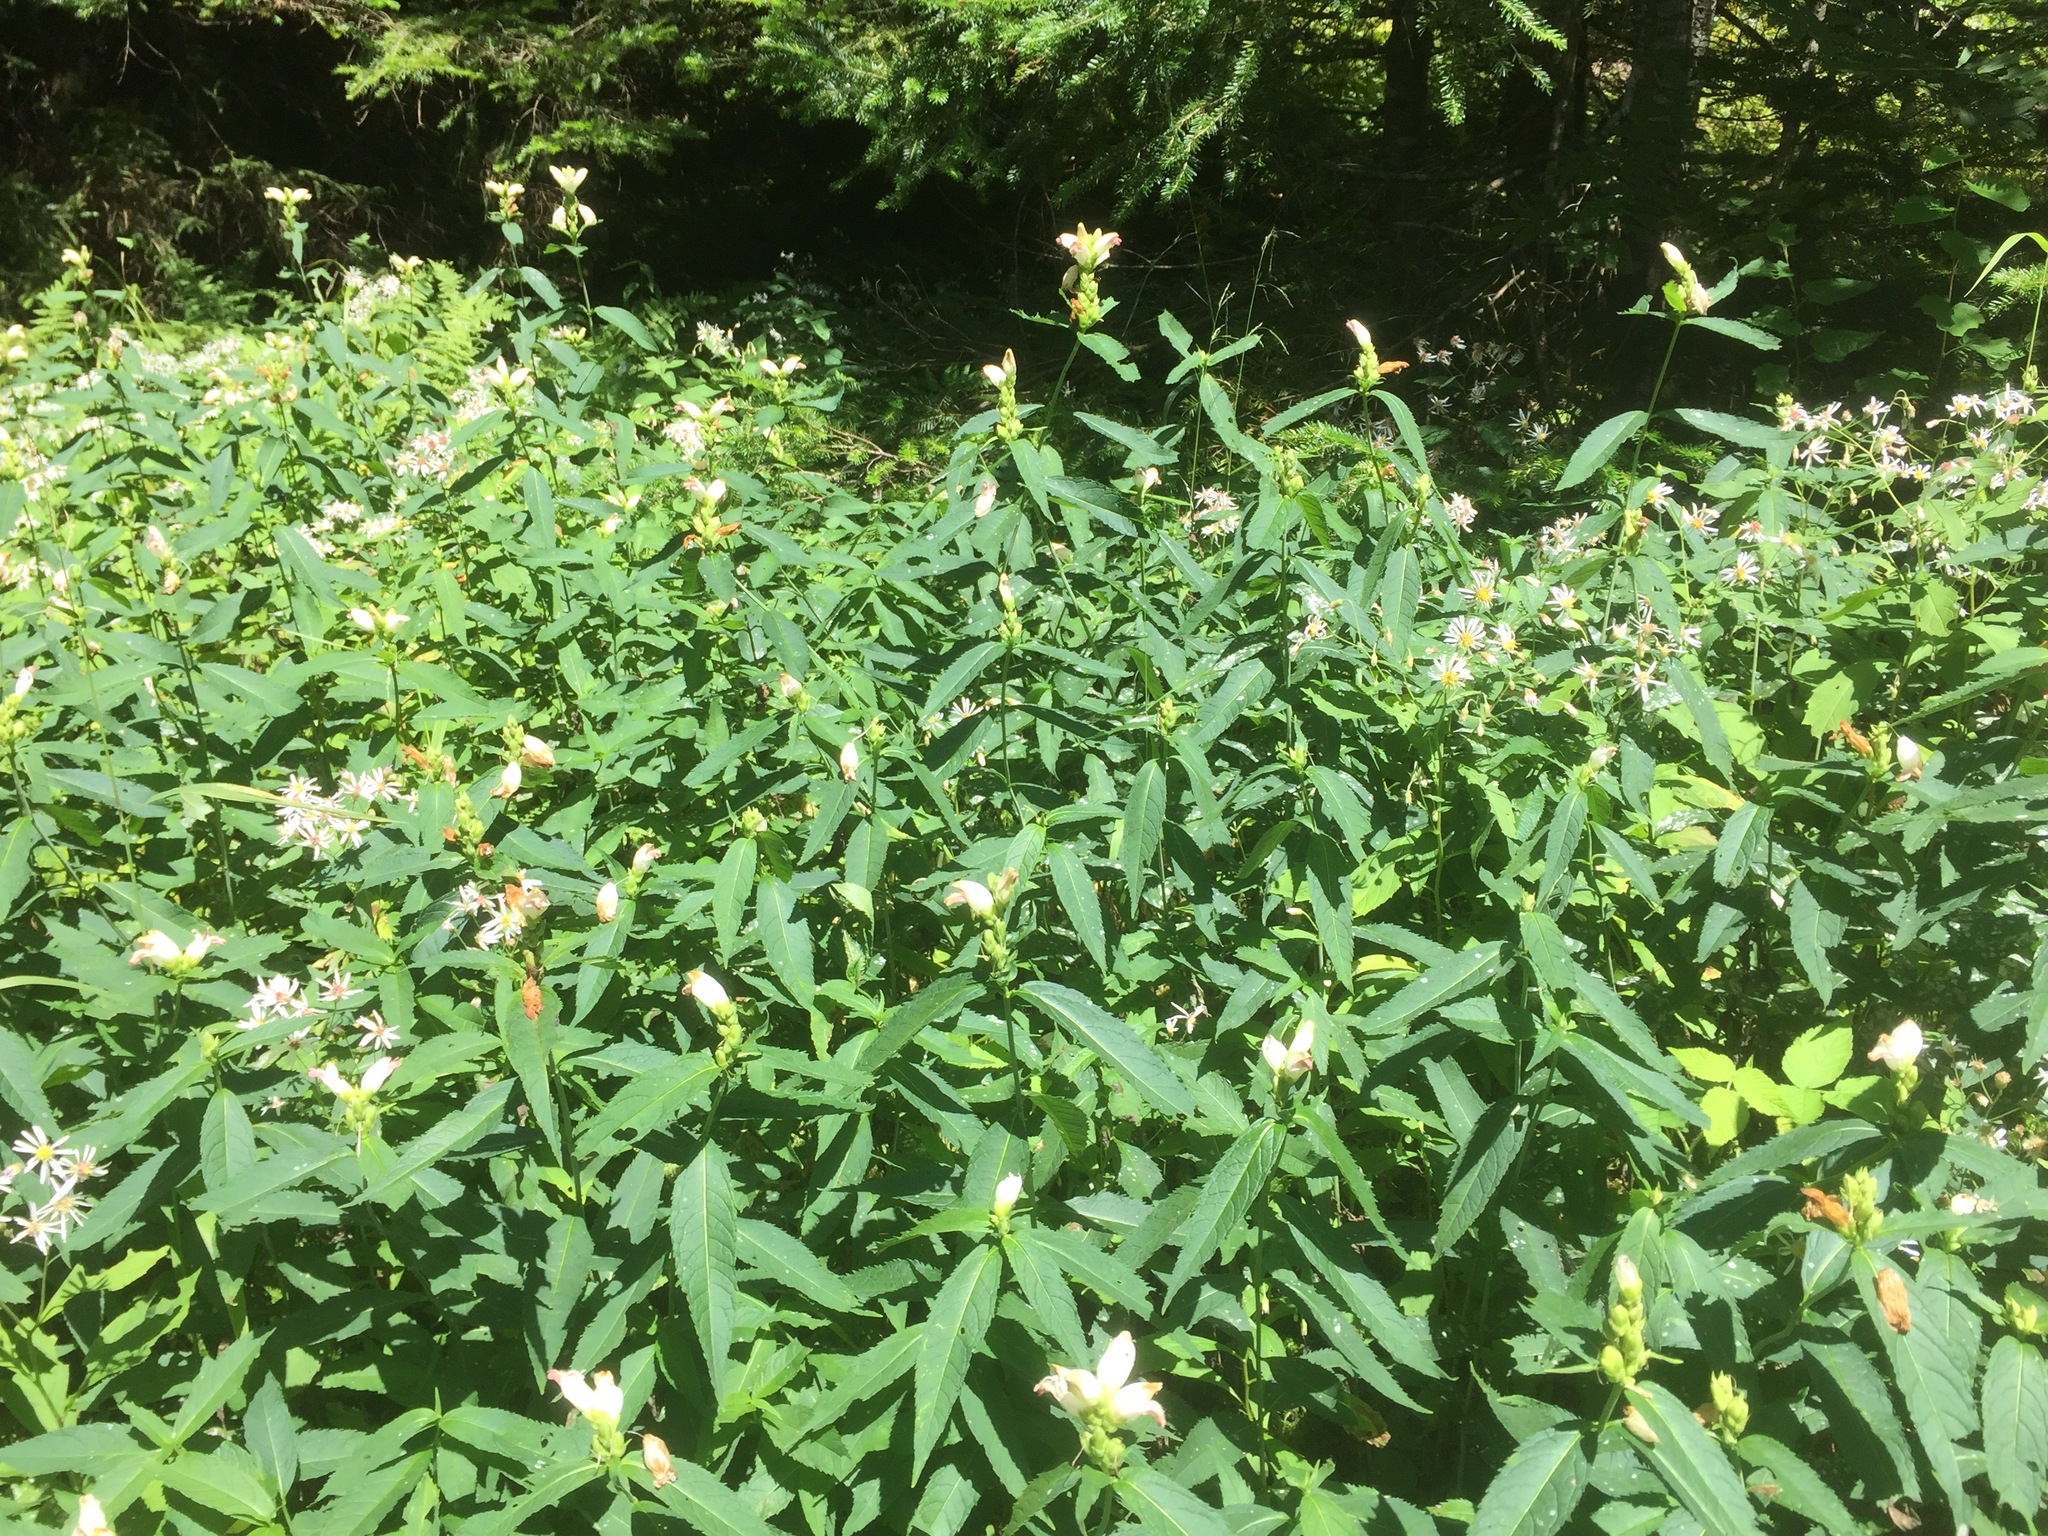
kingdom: Plantae
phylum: Tracheophyta
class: Magnoliopsida
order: Lamiales
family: Plantaginaceae
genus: Chelone
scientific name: Chelone glabra
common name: Snakehead
